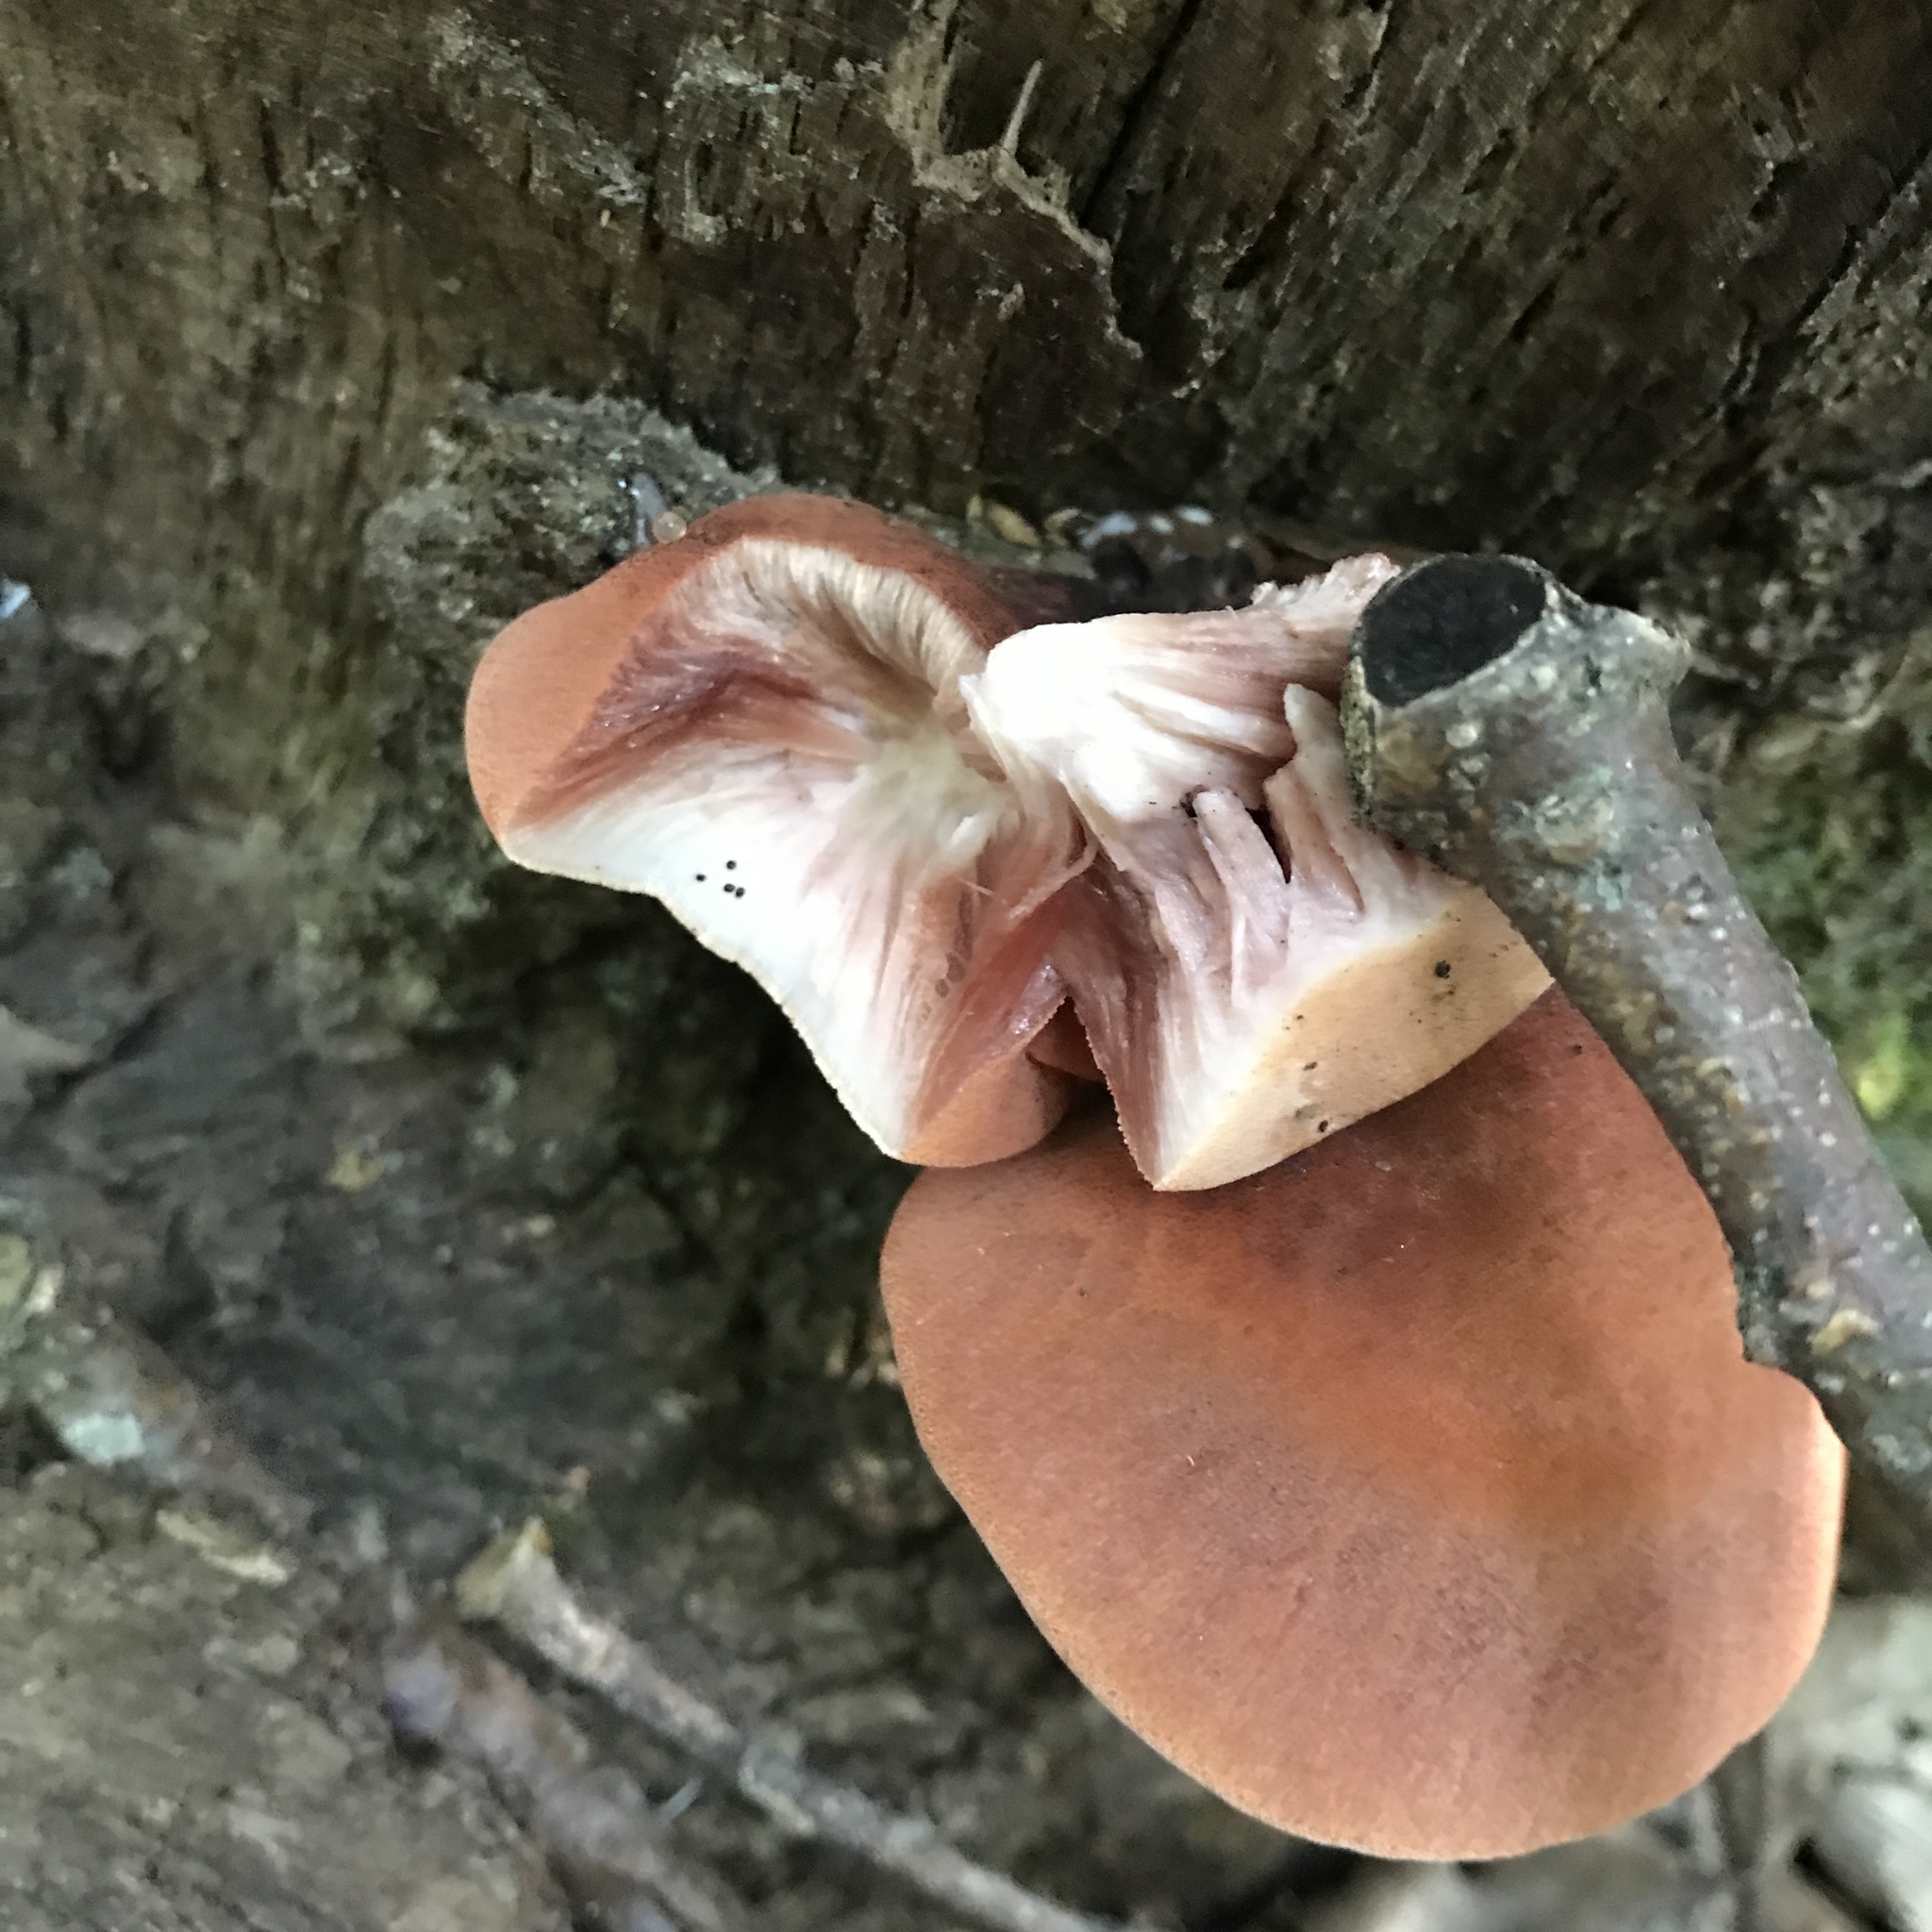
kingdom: Fungi
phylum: Basidiomycota
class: Agaricomycetes
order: Agaricales
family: Fistulinaceae
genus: Fistulina
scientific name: Fistulina hepatica
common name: Beef-steak fungus
